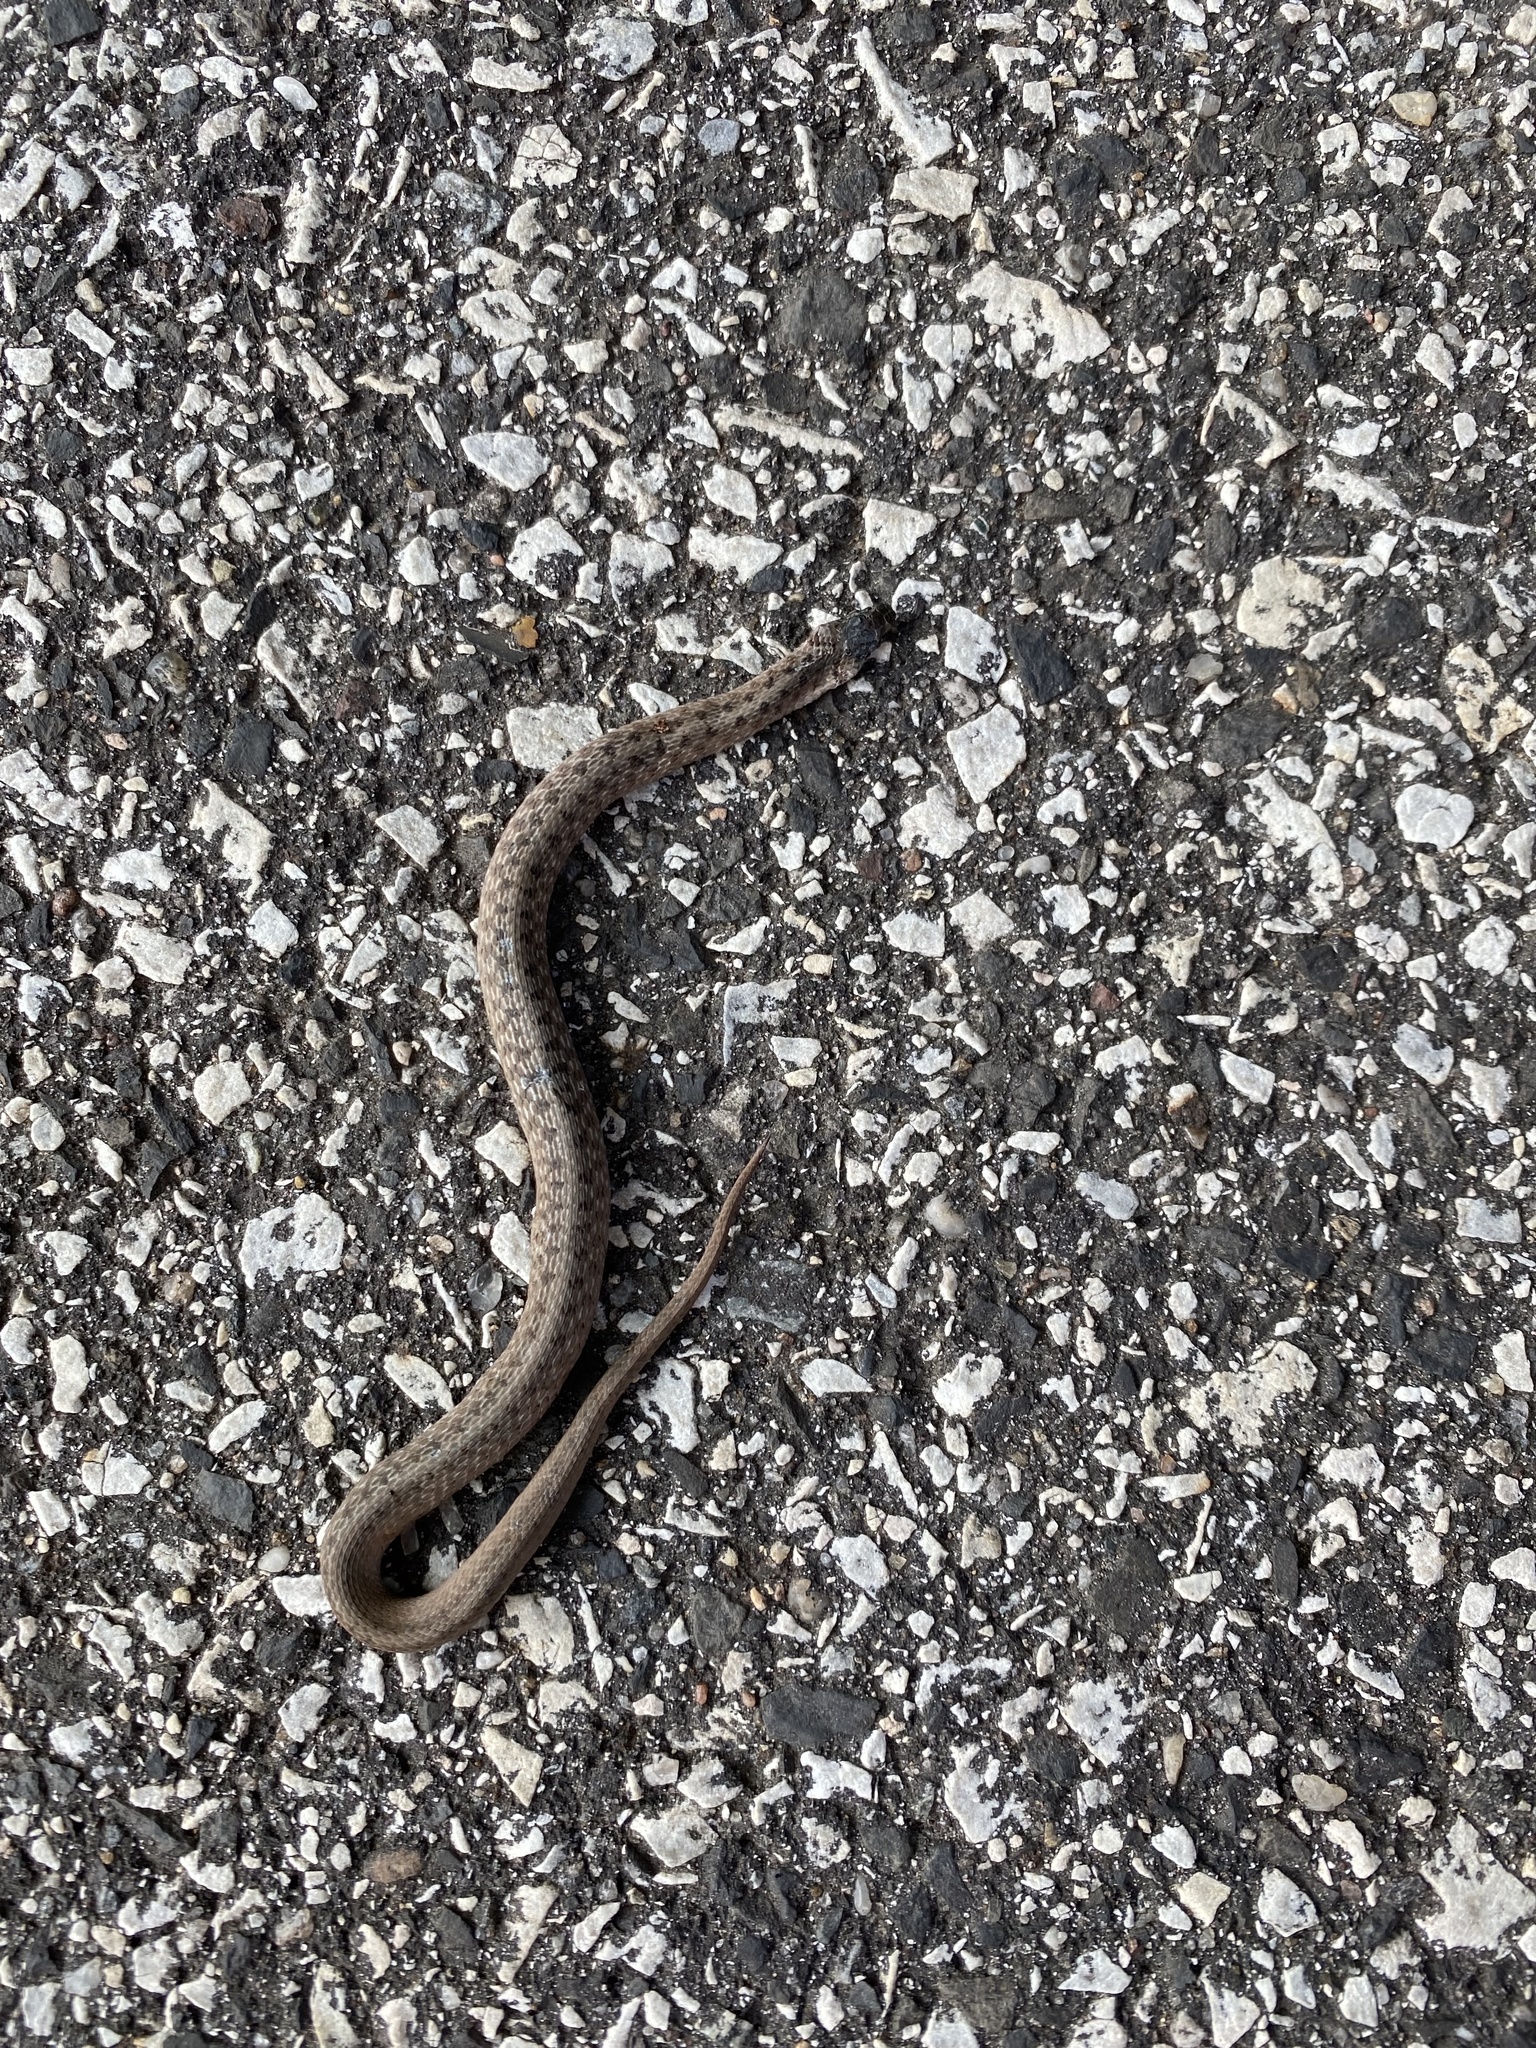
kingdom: Animalia
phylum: Chordata
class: Squamata
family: Colubridae
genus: Storeria
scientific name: Storeria dekayi
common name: (dekay’s) brown snake
